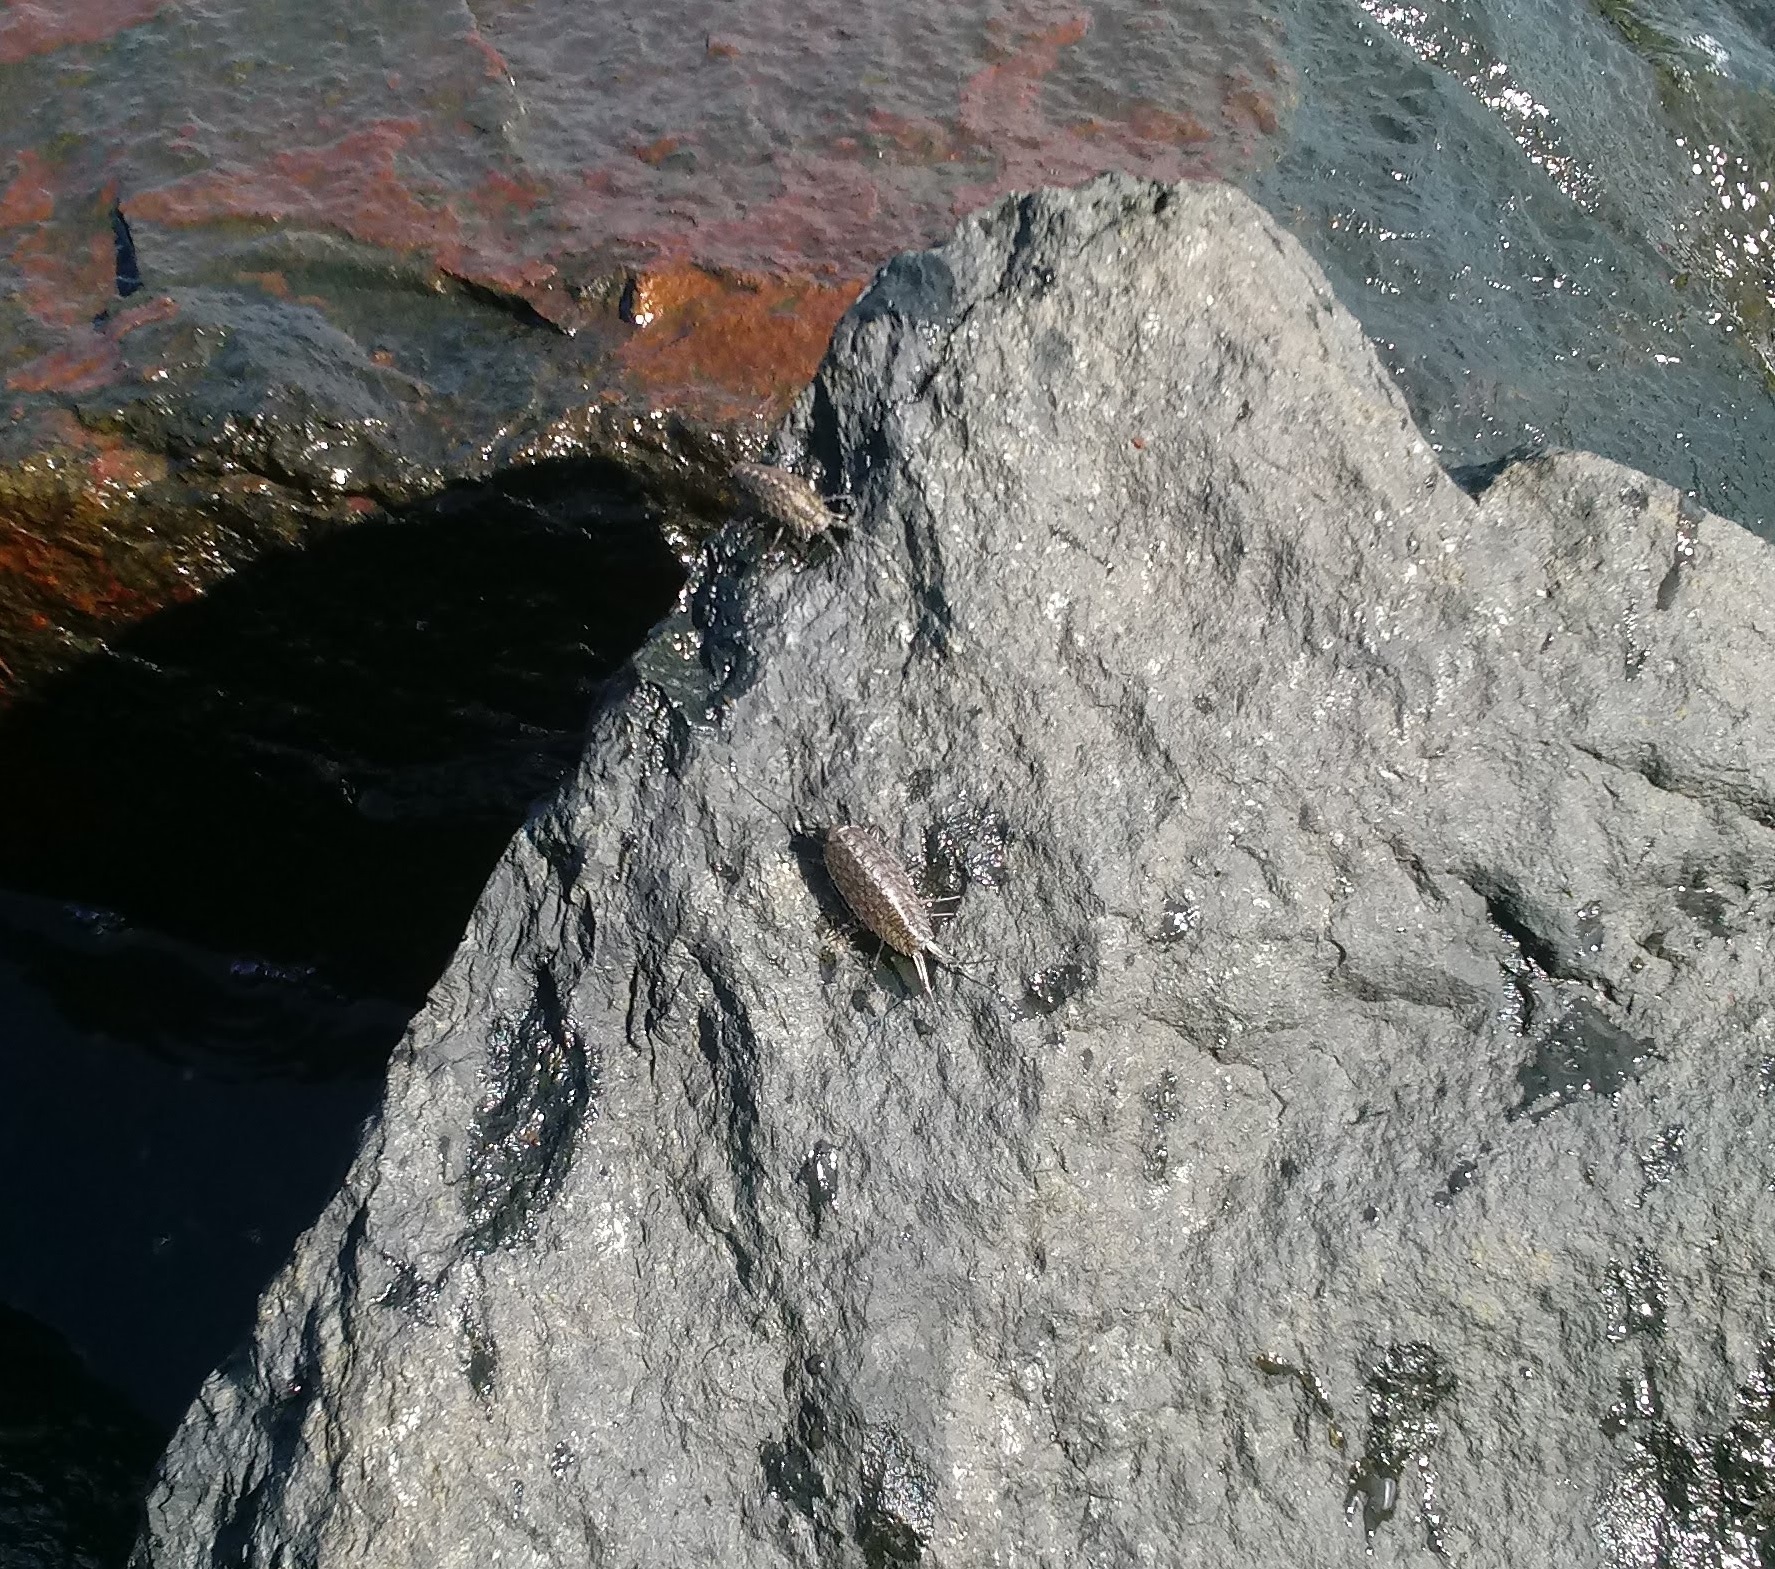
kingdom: Animalia
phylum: Arthropoda
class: Malacostraca
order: Isopoda
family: Ligiidae
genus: Ligia
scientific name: Ligia exotica
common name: Wharf roach
